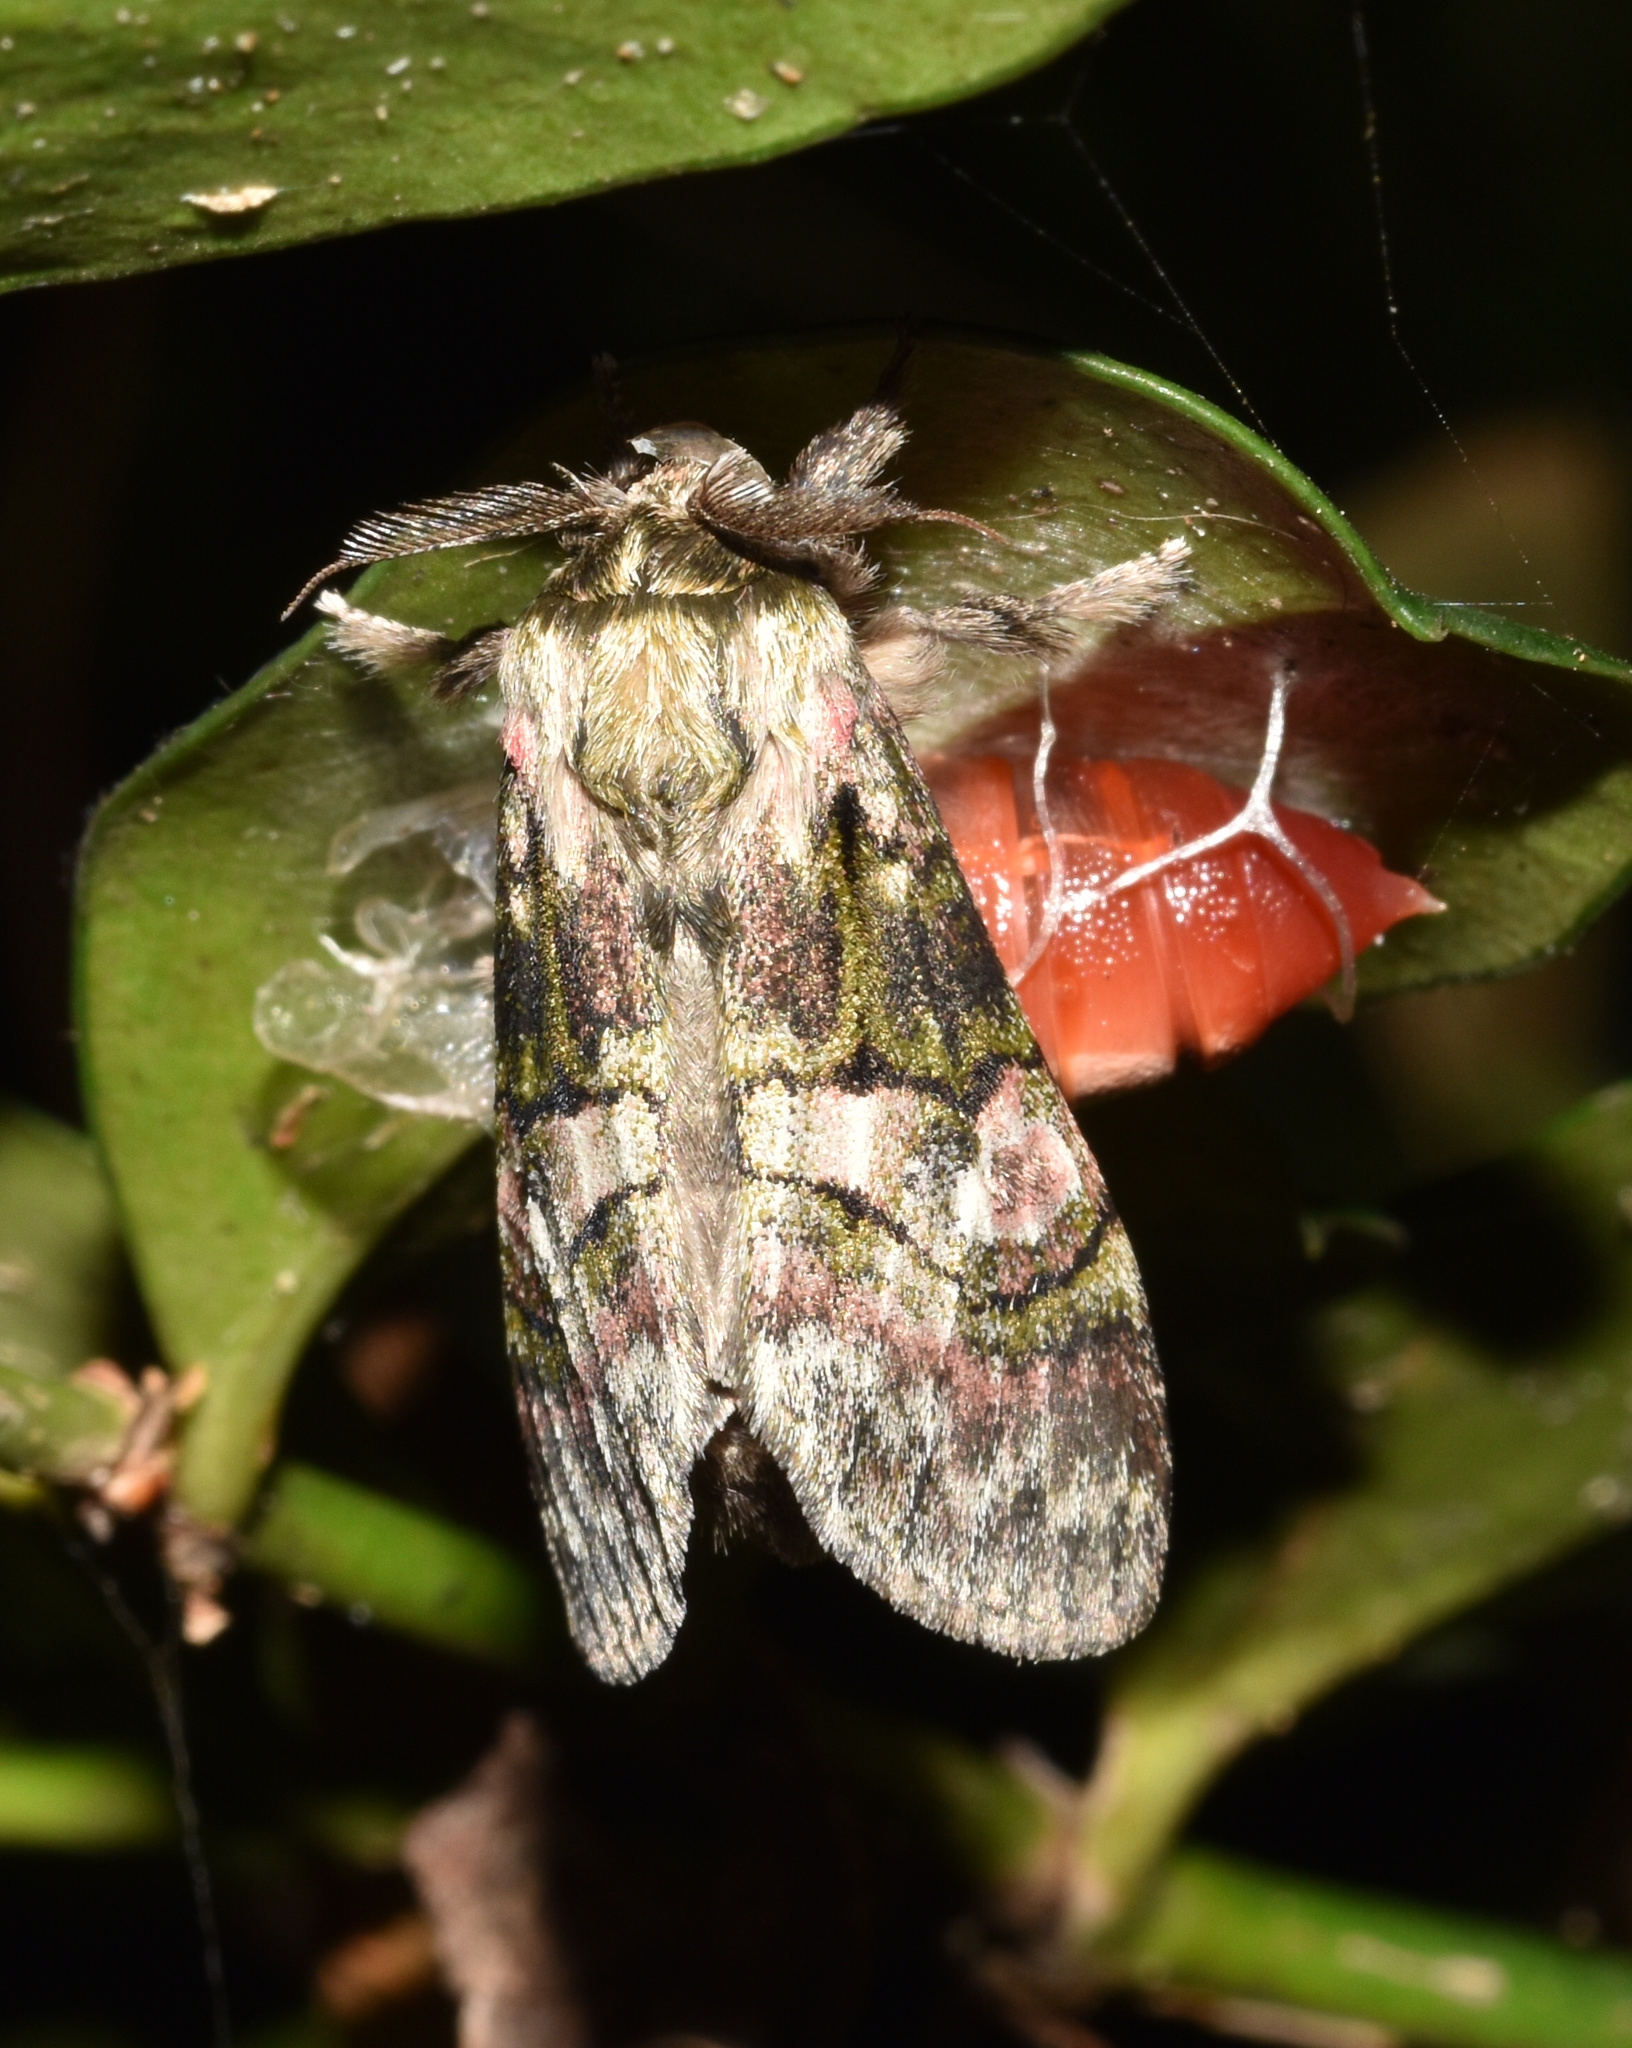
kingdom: Animalia
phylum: Arthropoda
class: Insecta
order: Lepidoptera
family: Notodontidae
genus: Rhenea
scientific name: Rhenea michii
